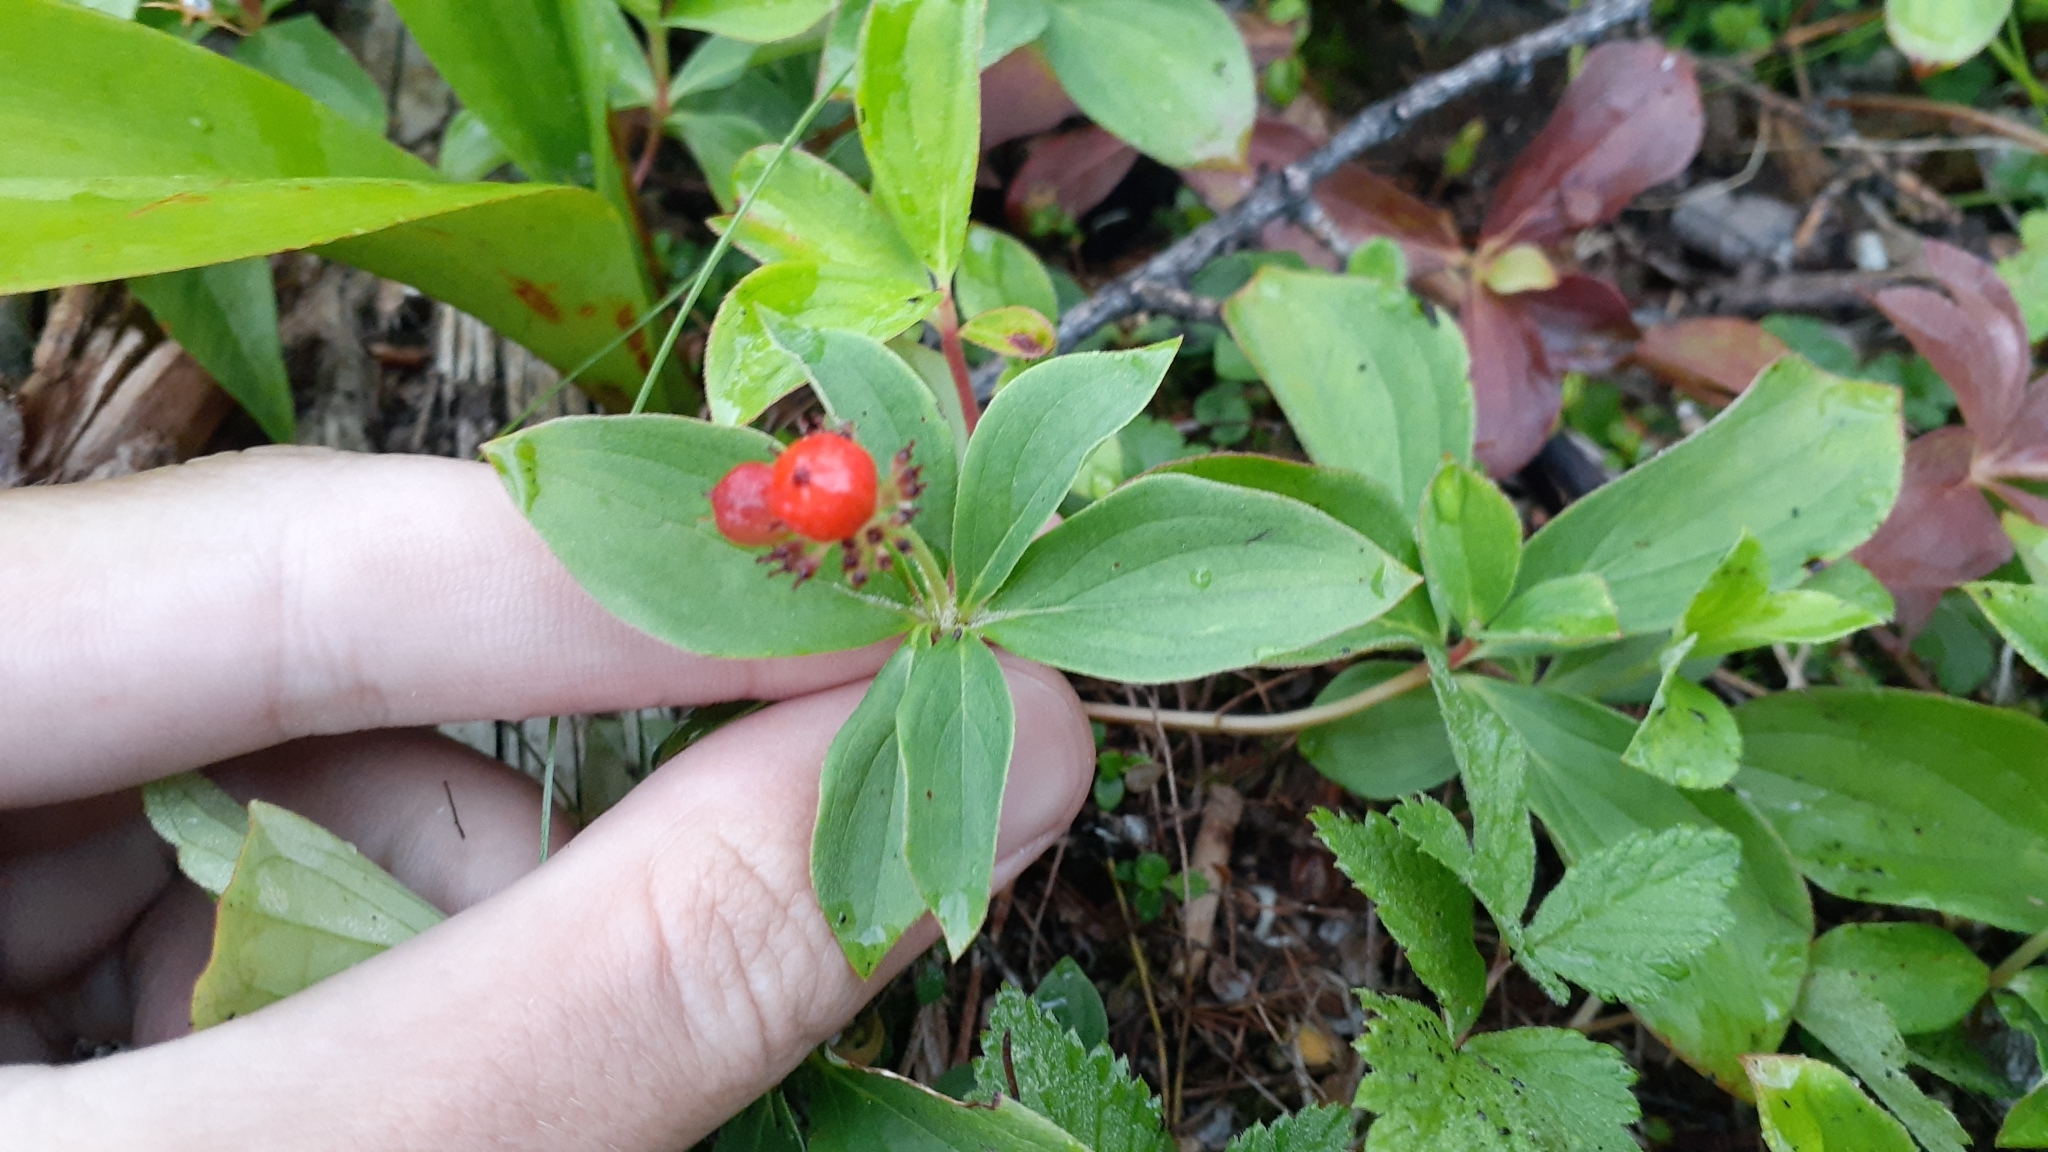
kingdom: Plantae
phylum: Tracheophyta
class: Magnoliopsida
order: Cornales
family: Cornaceae
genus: Cornus
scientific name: Cornus canadensis
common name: Creeping dogwood
